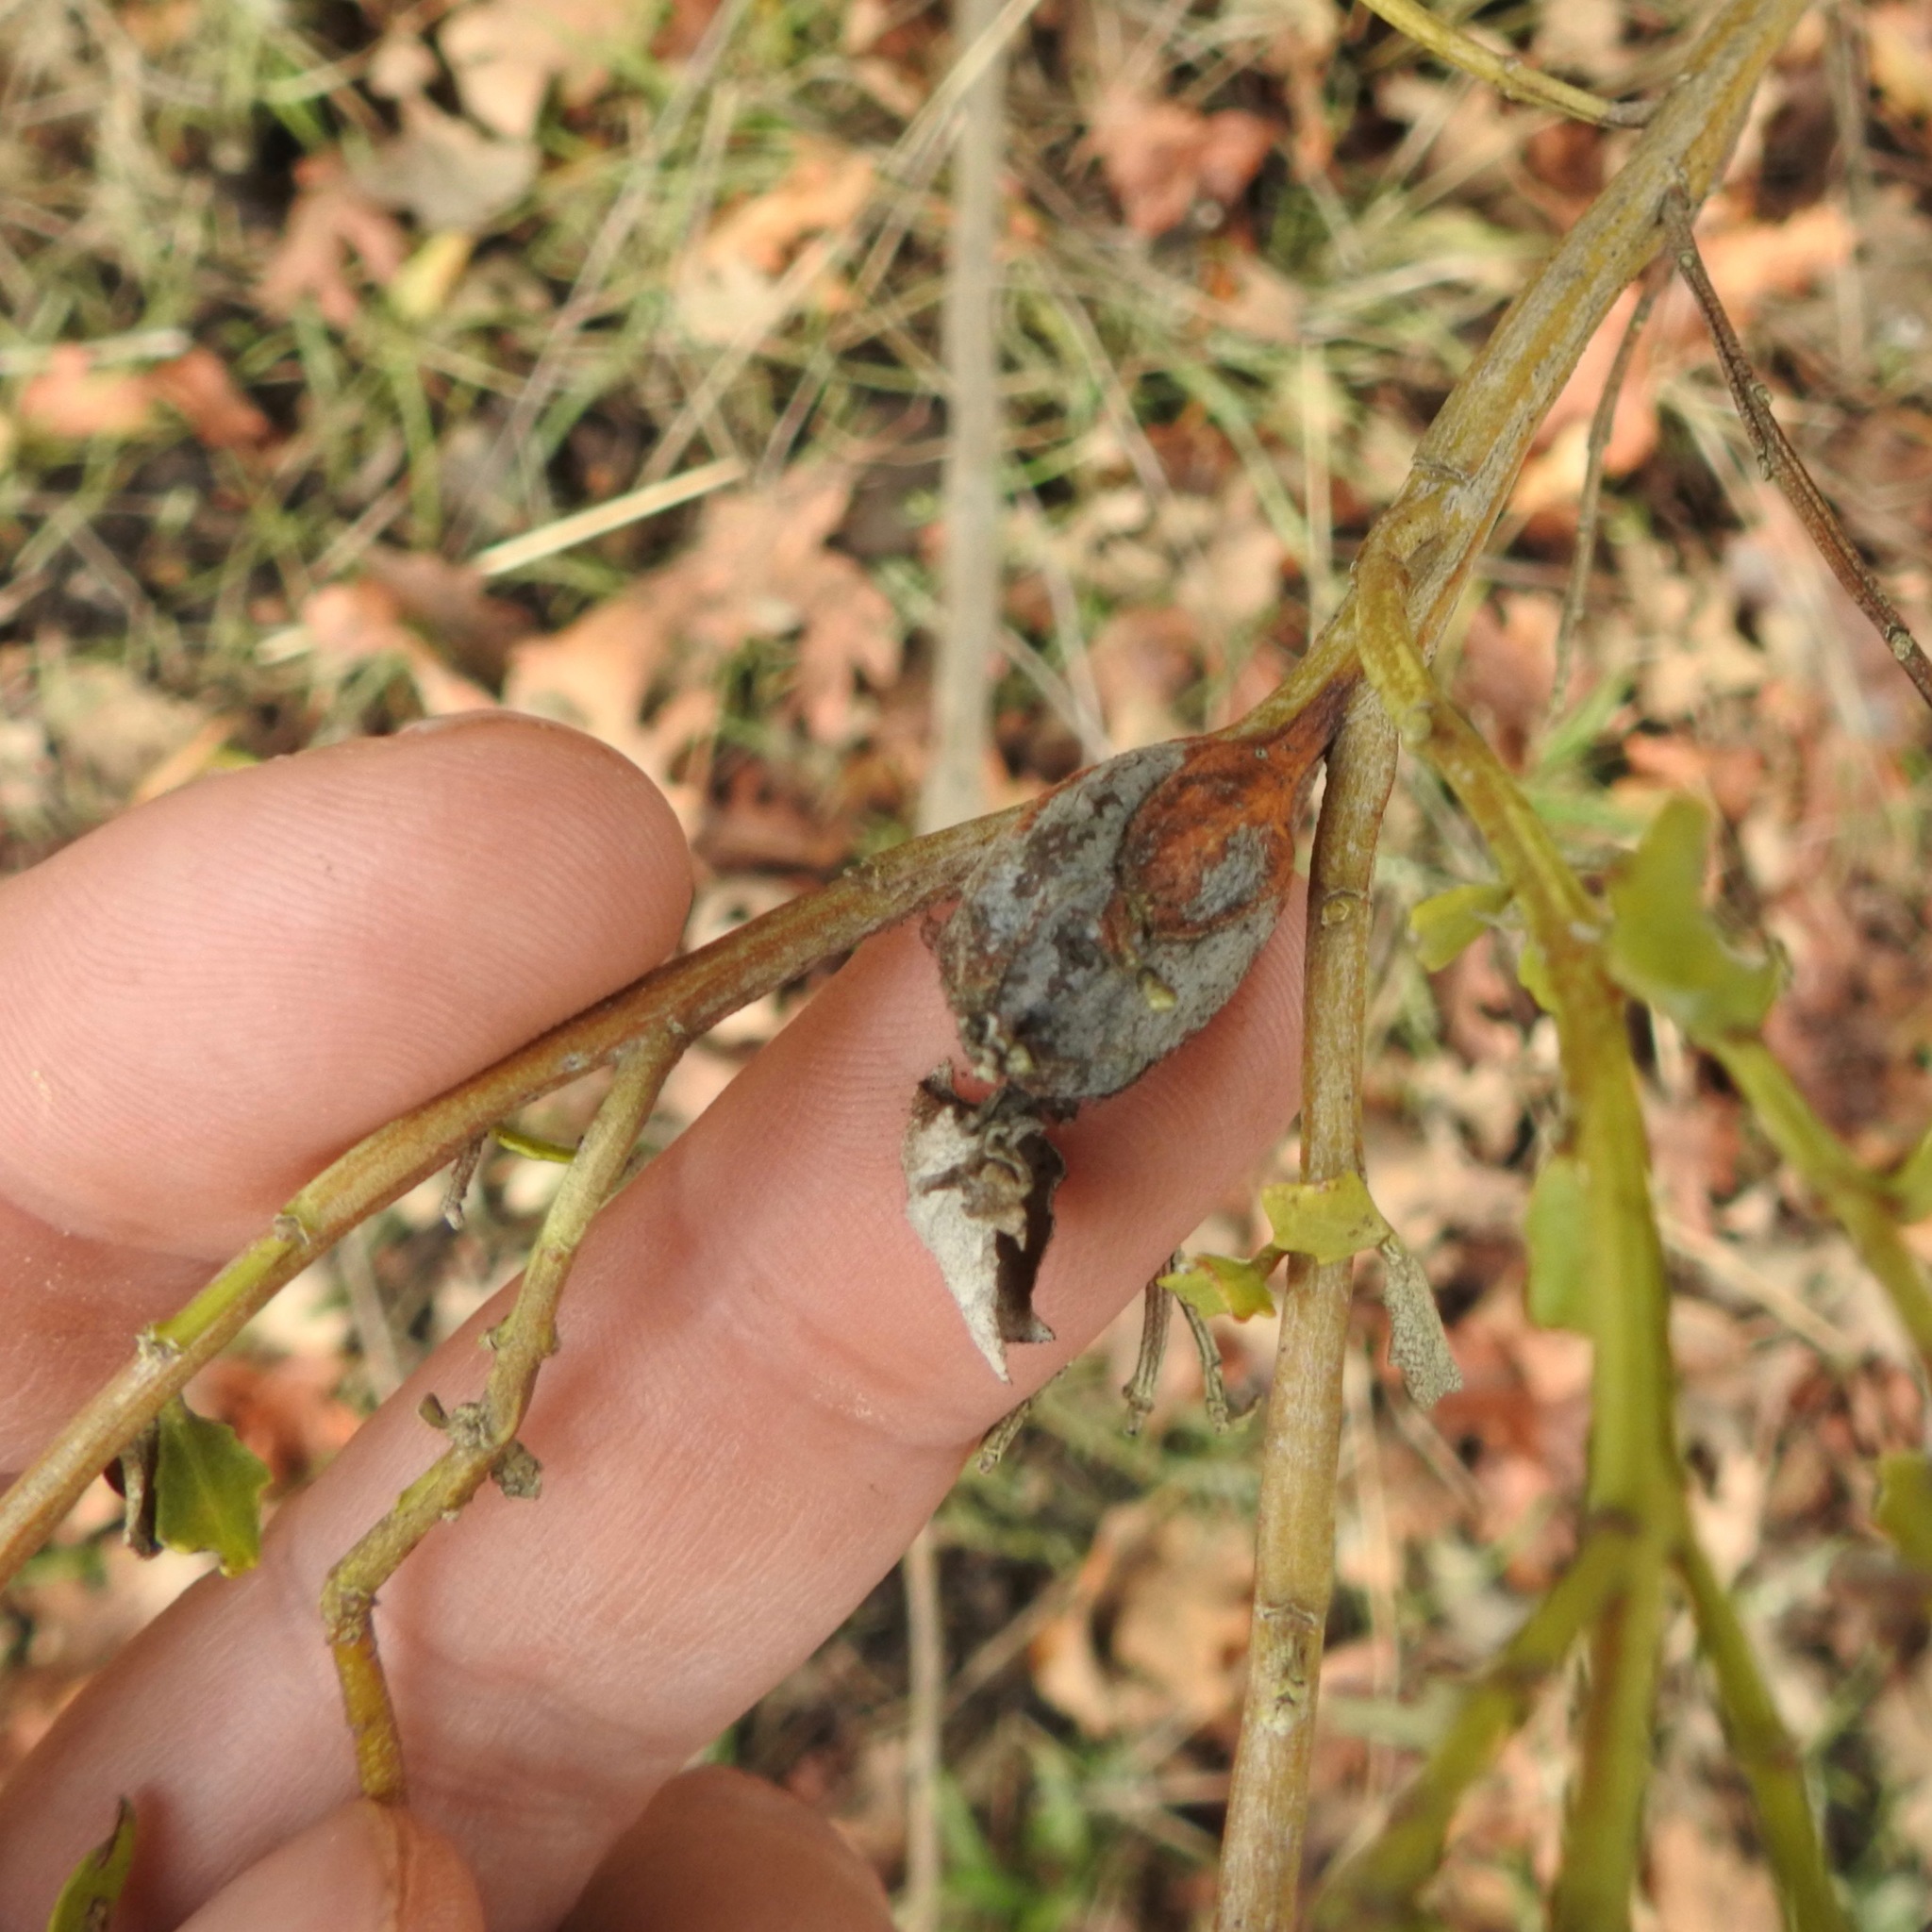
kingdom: Plantae
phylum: Tracheophyta
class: Magnoliopsida
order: Asterales
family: Asteraceae
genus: Baccharis
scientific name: Baccharis pilularis
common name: Coyotebrush
